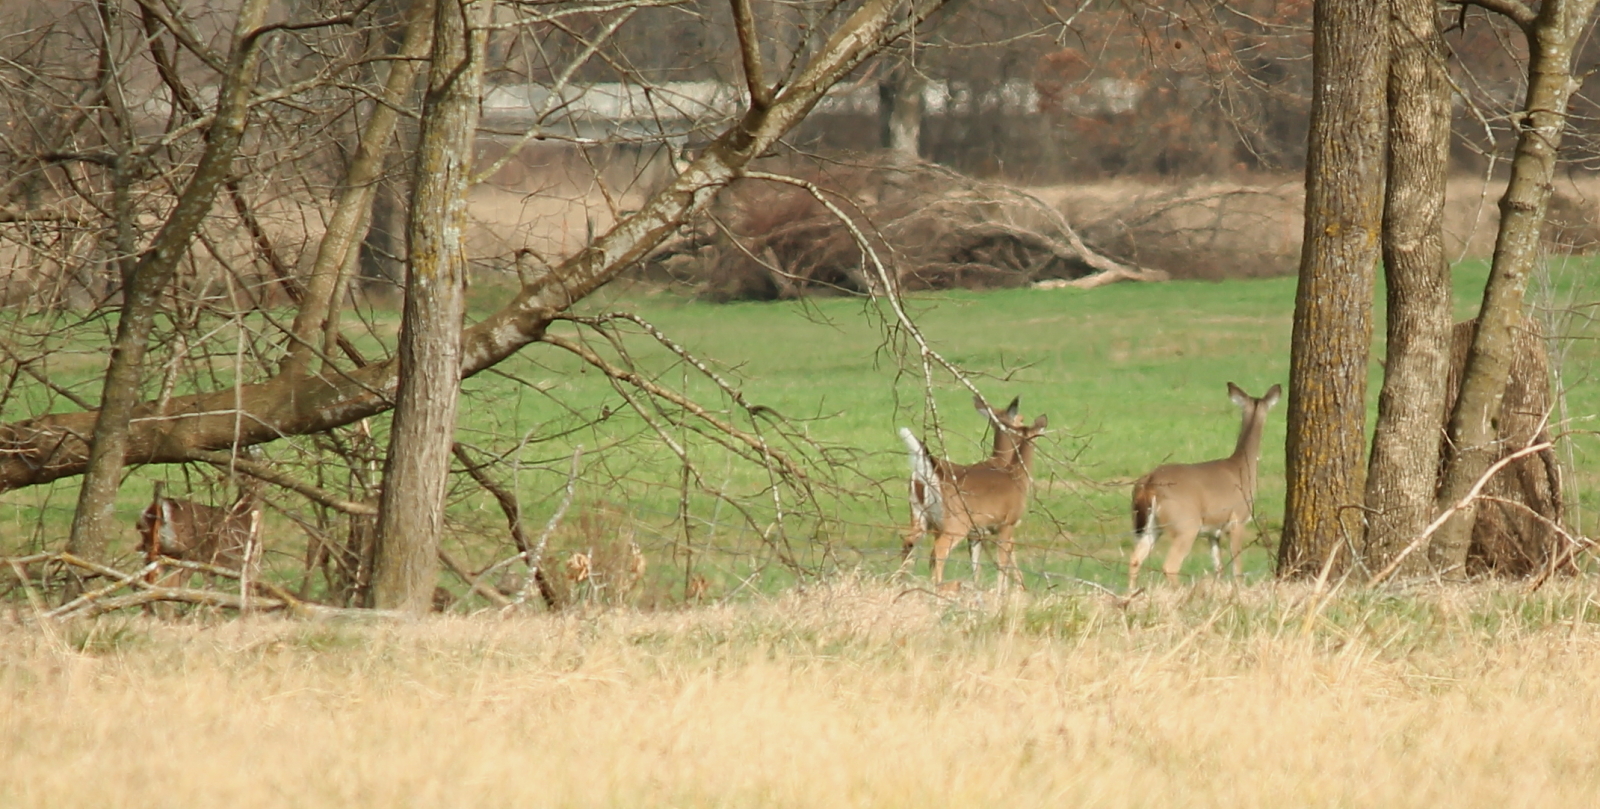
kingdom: Animalia
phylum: Chordata
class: Mammalia
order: Artiodactyla
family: Cervidae
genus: Odocoileus
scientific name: Odocoileus virginianus
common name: White-tailed deer
